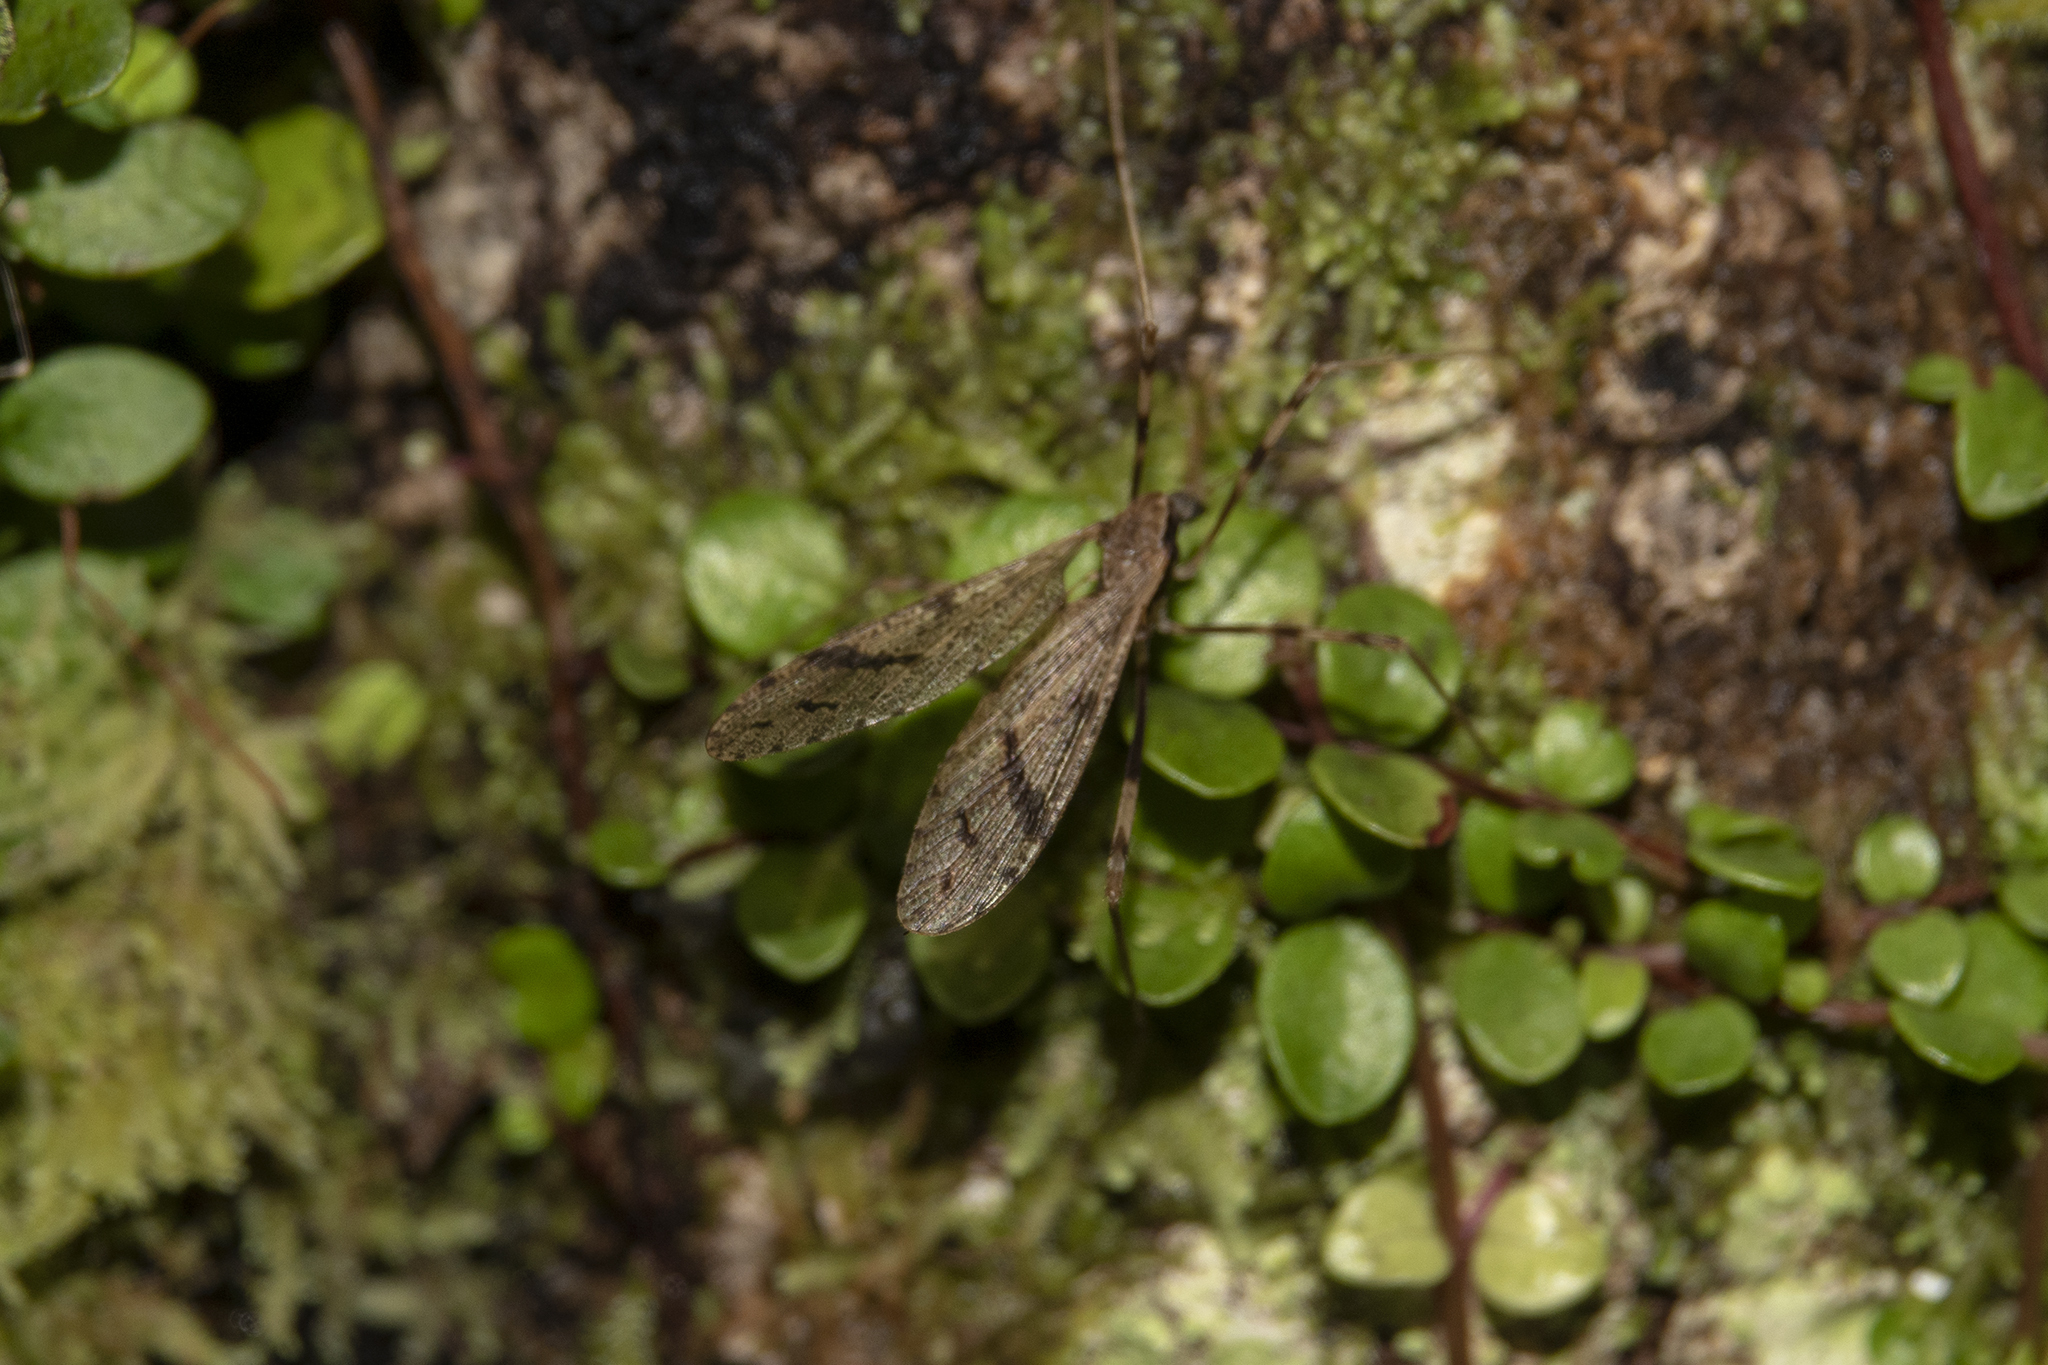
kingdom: Animalia
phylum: Arthropoda
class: Insecta
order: Diptera
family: Limoniidae
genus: Rhamphophila
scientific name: Rhamphophila sinistra
